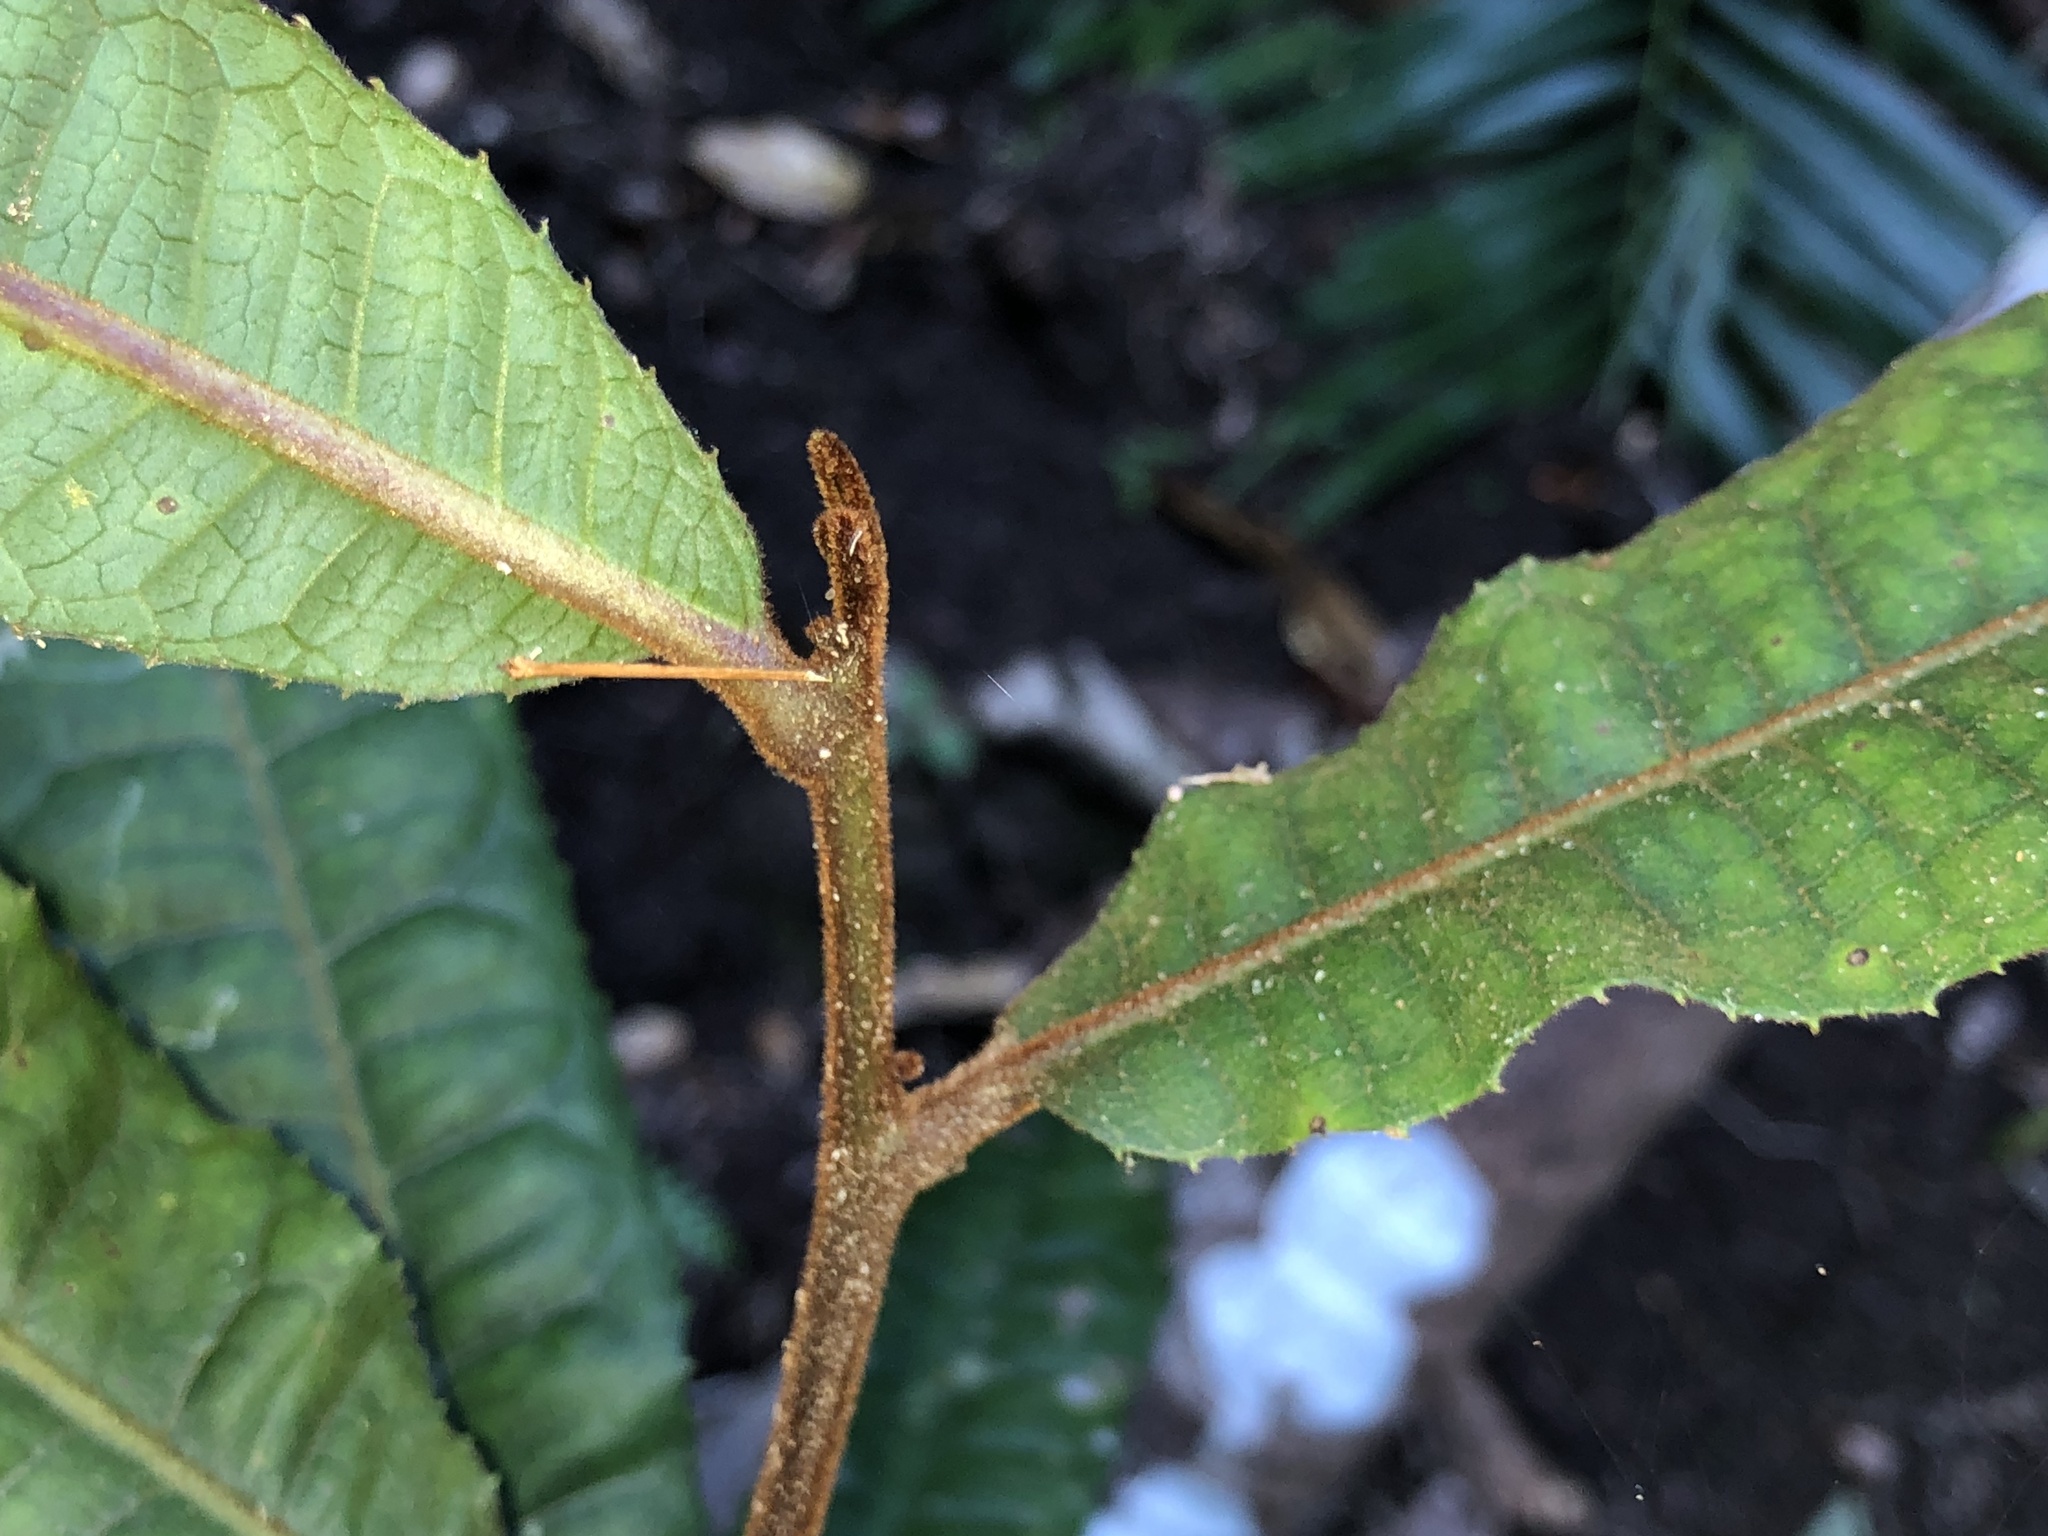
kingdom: Plantae
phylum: Tracheophyta
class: Magnoliopsida
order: Proteales
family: Proteaceae
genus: Helicia
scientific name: Helicia ferruginea
